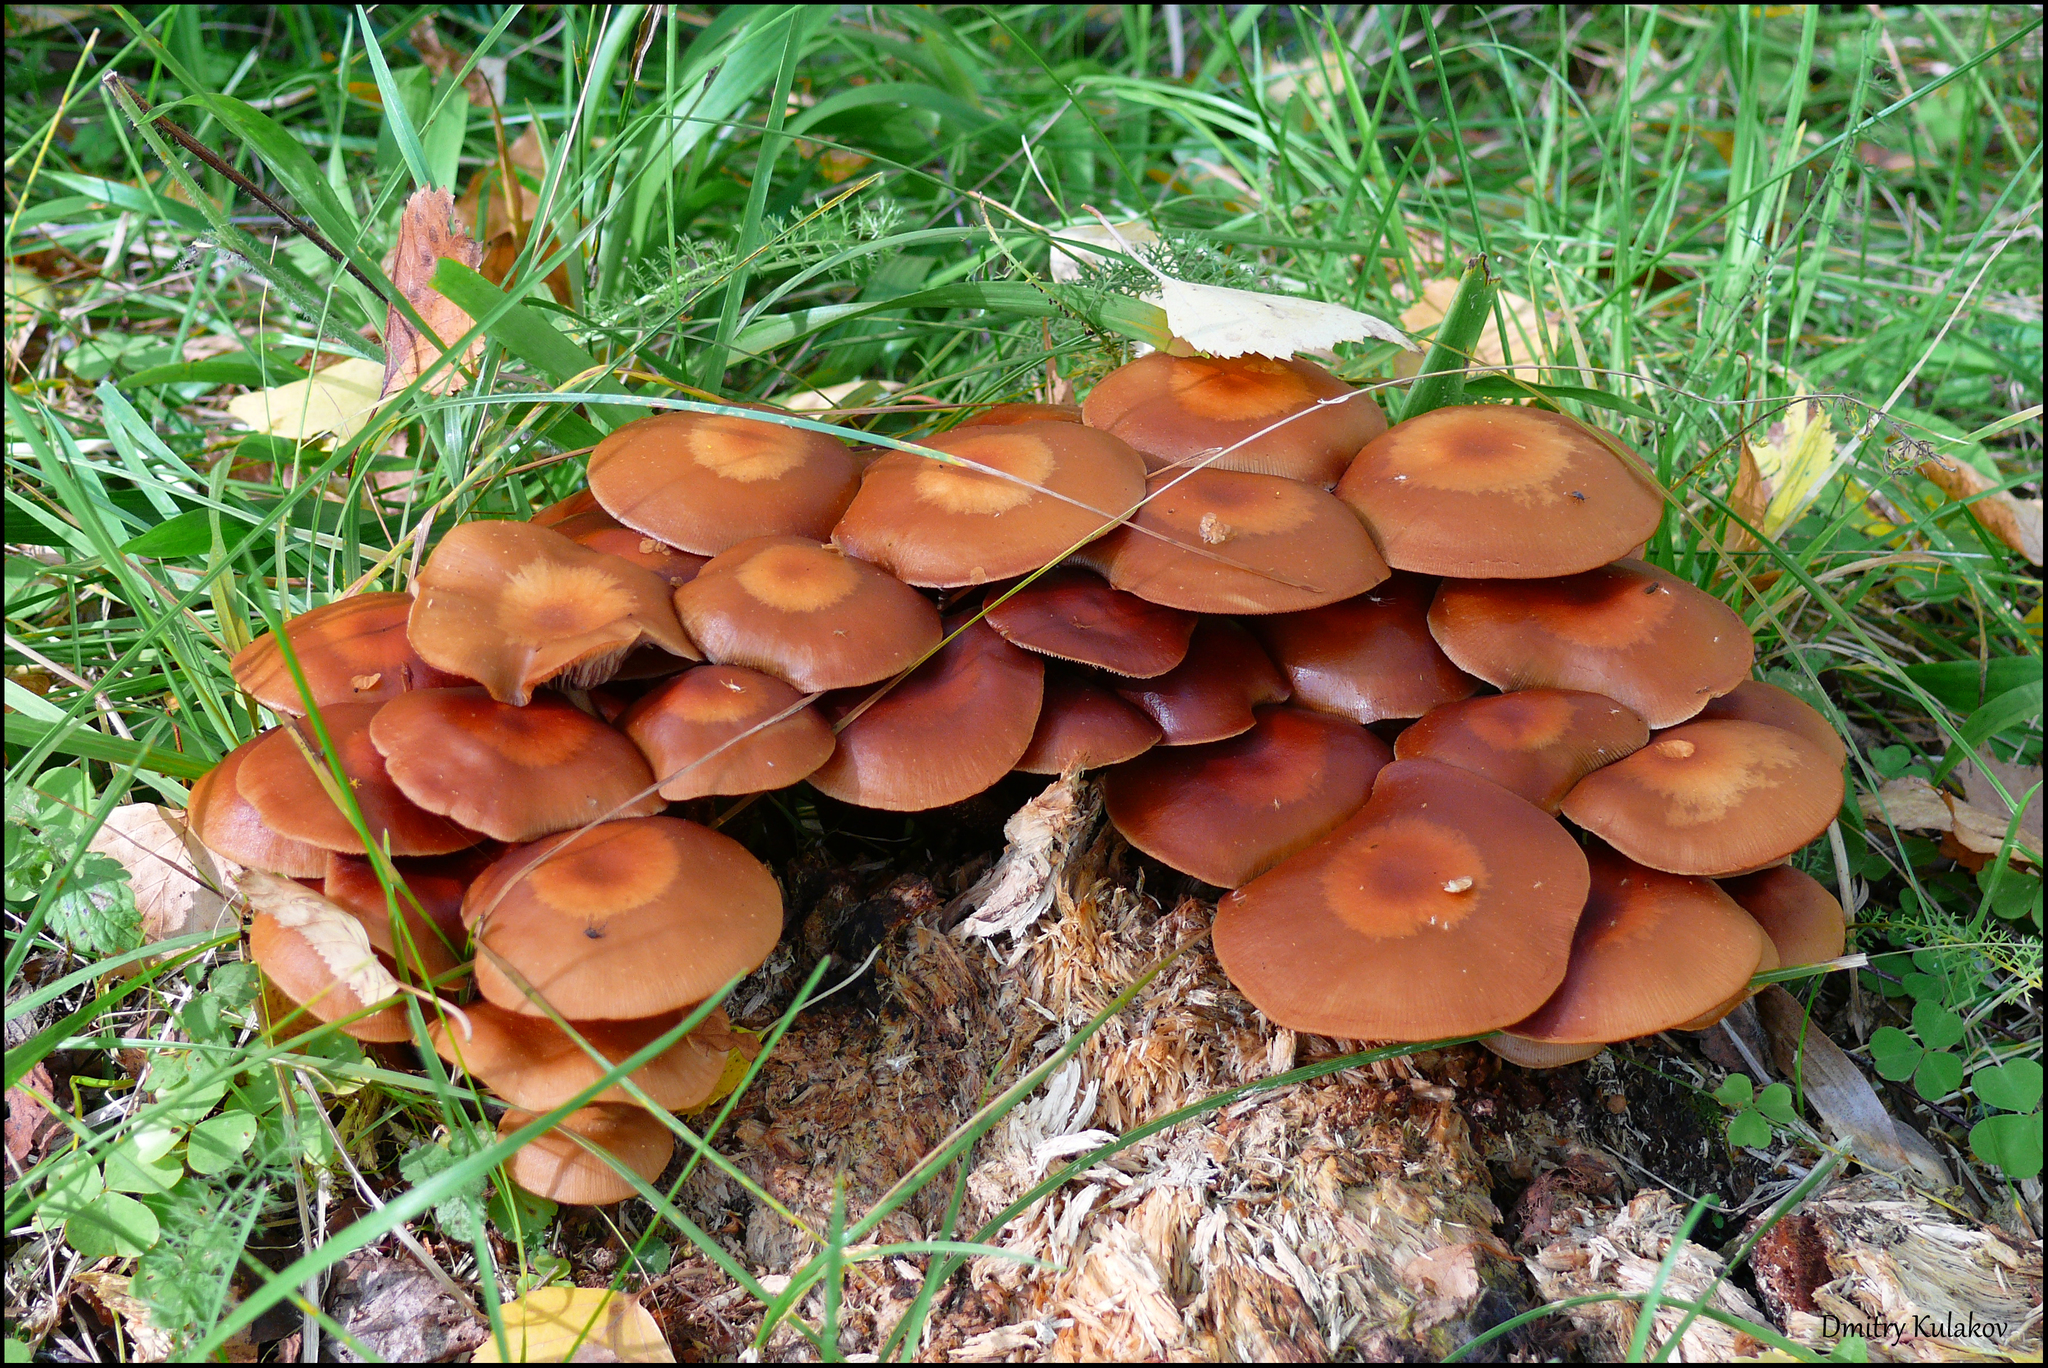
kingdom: Fungi
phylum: Basidiomycota
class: Agaricomycetes
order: Agaricales
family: Strophariaceae
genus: Kuehneromyces
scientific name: Kuehneromyces mutabilis
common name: Sheathed woodtuft
